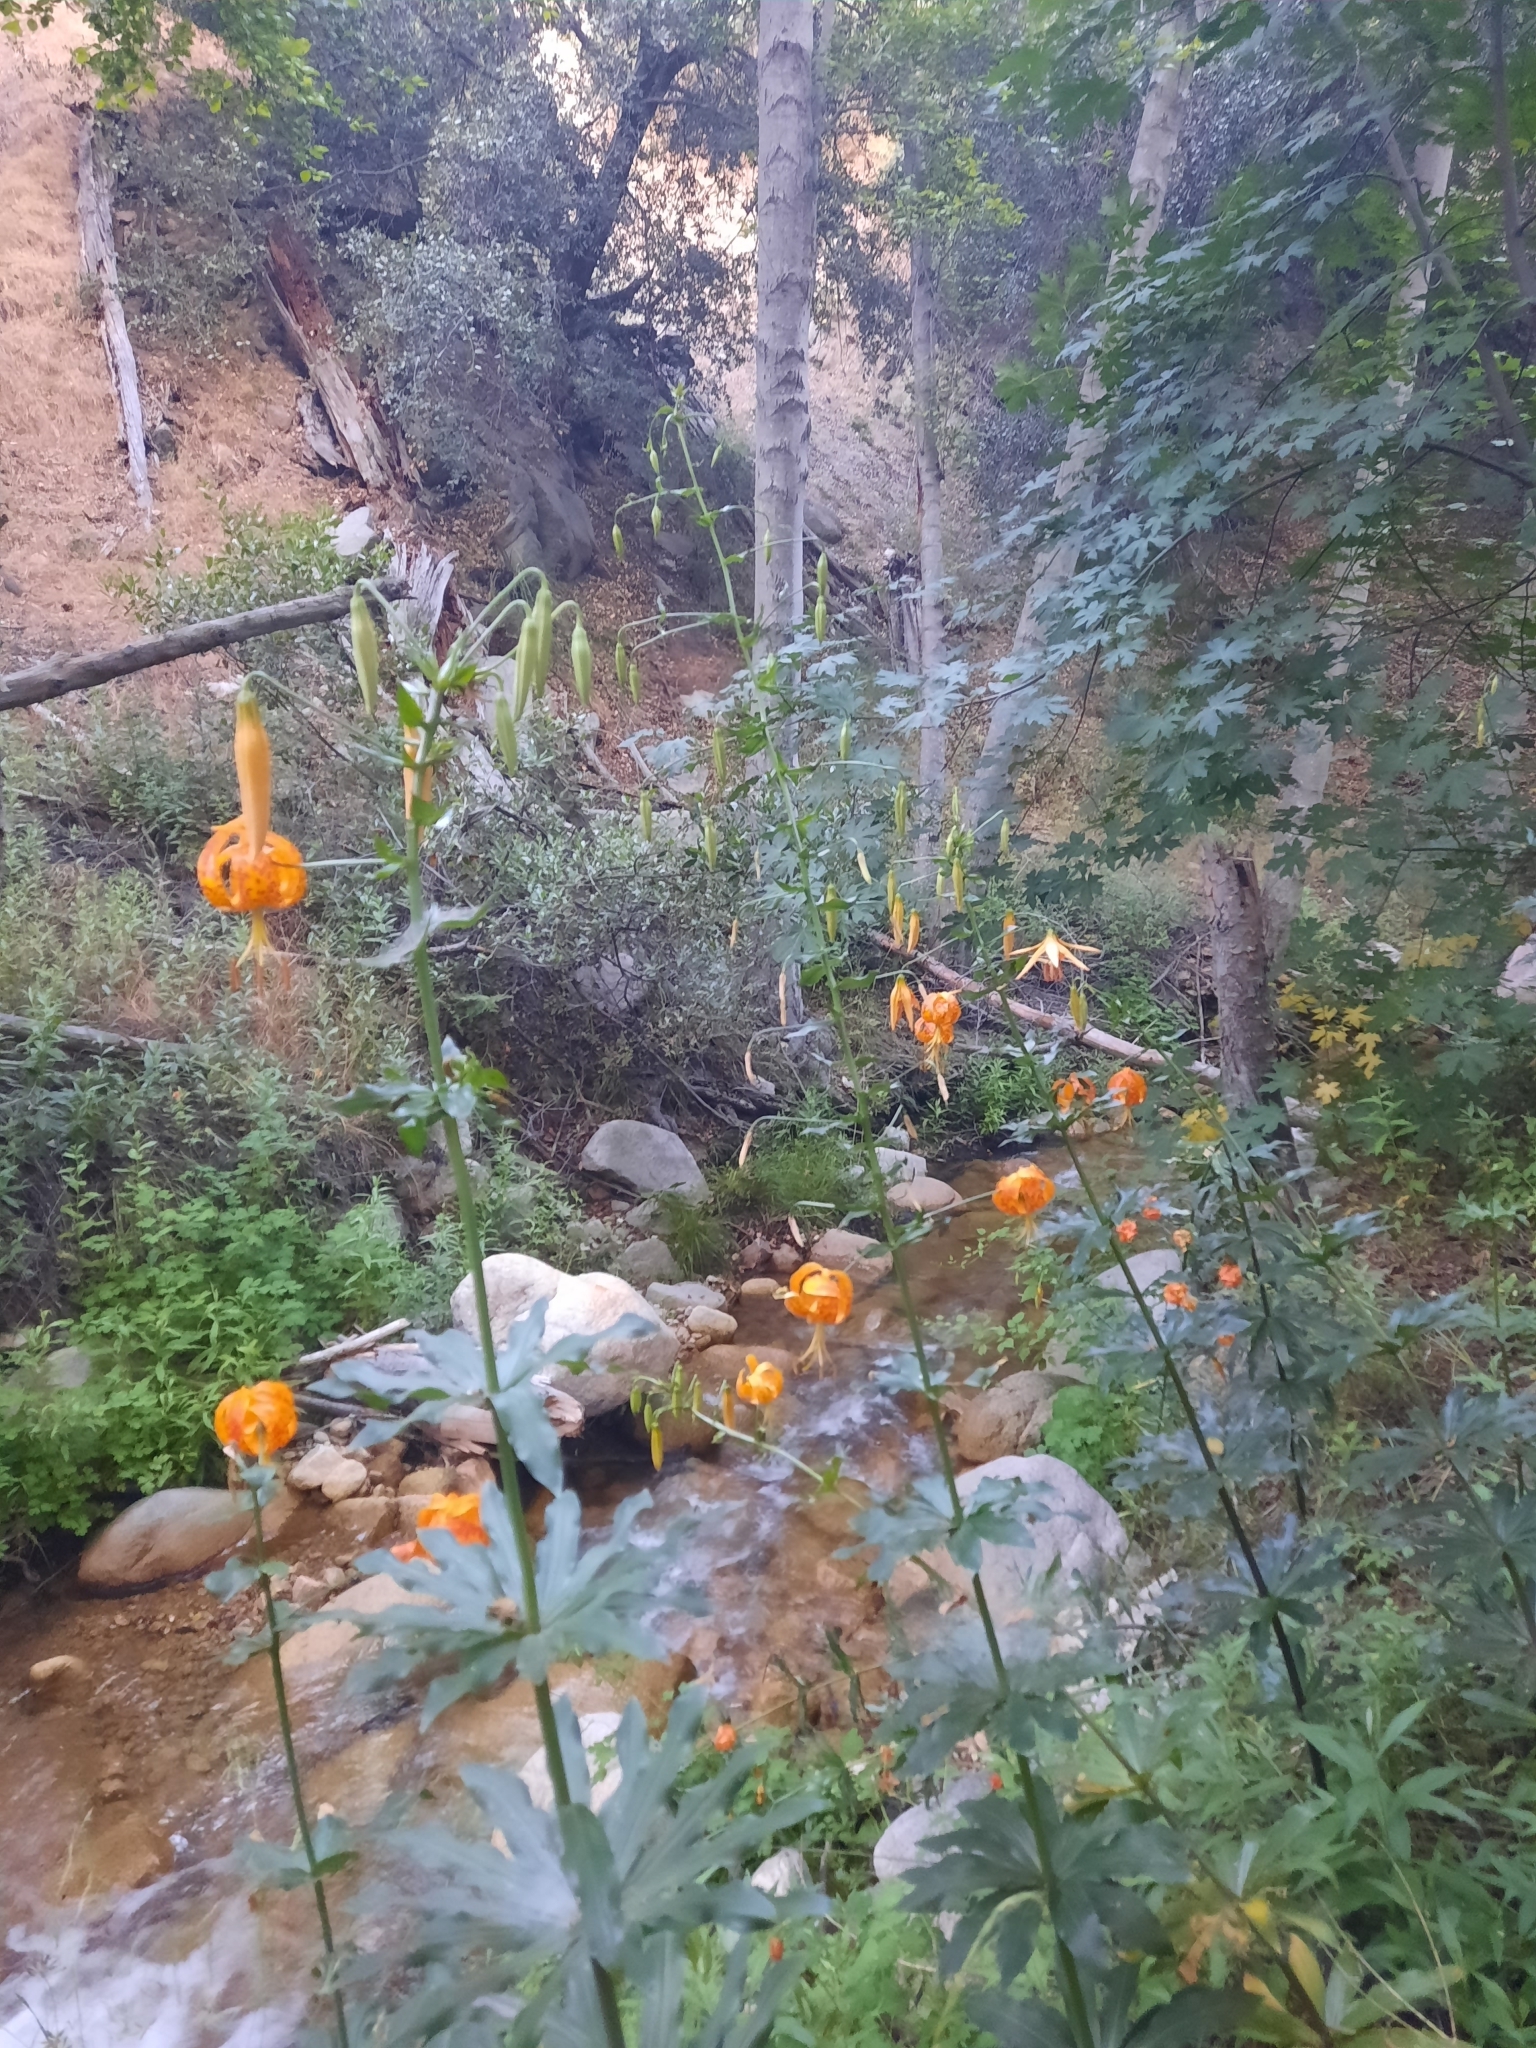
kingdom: Plantae
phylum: Tracheophyta
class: Liliopsida
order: Liliales
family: Liliaceae
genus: Lilium
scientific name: Lilium humboldtii
